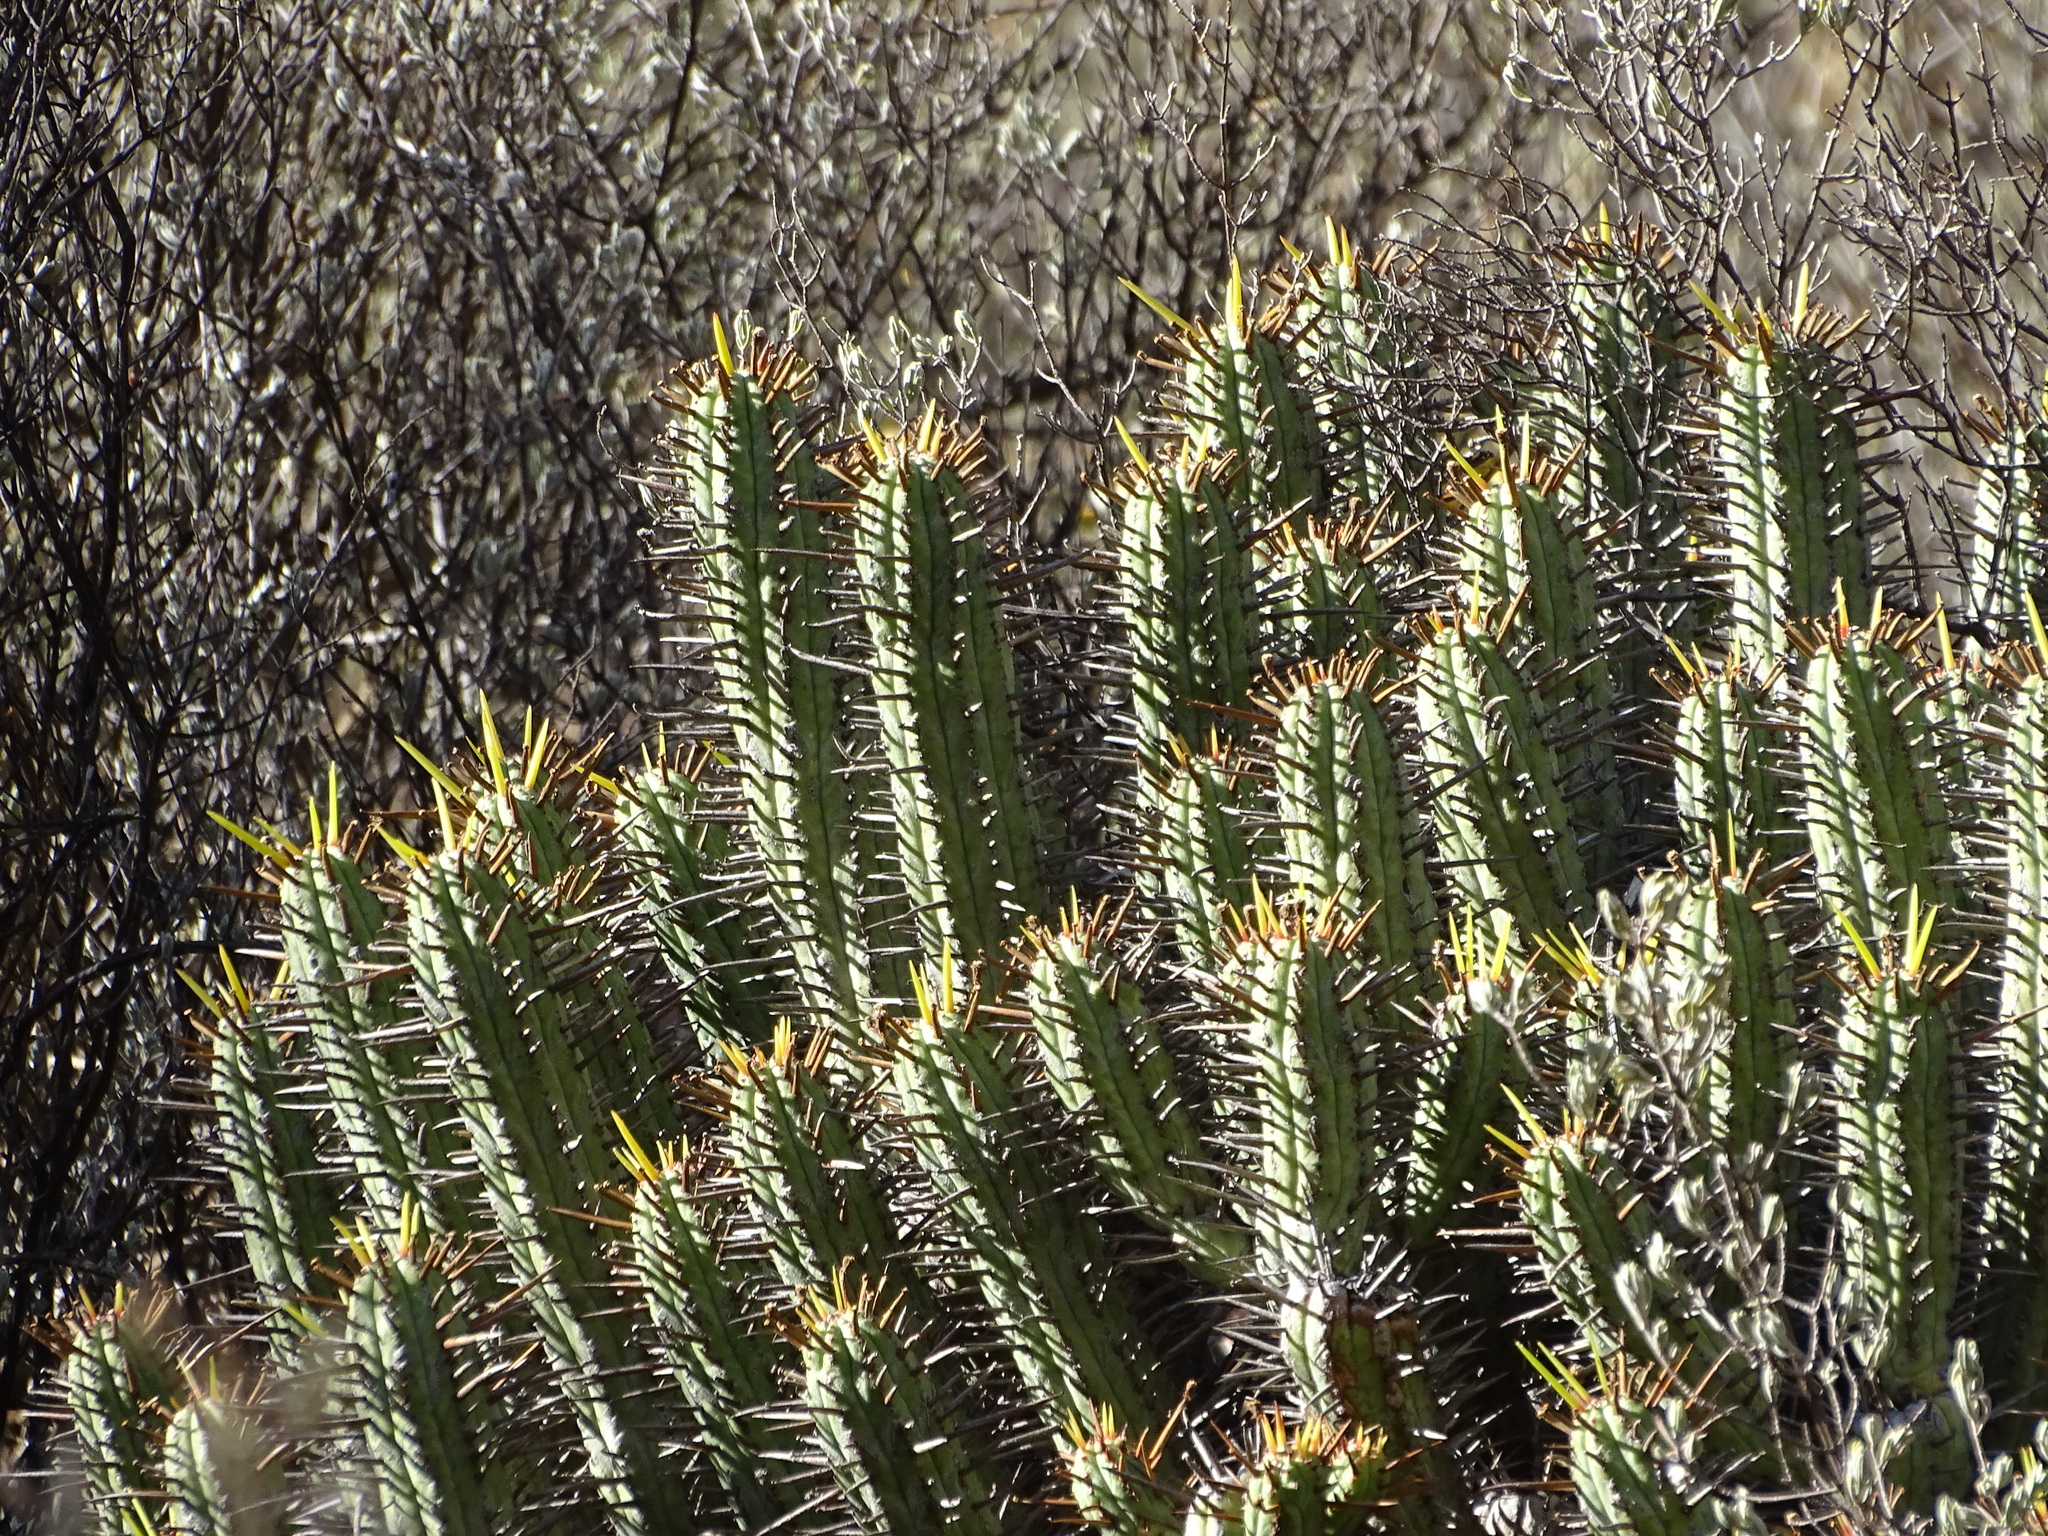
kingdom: Plantae
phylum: Tracheophyta
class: Magnoliopsida
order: Malpighiales
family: Euphorbiaceae
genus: Euphorbia
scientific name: Euphorbia heptagona
